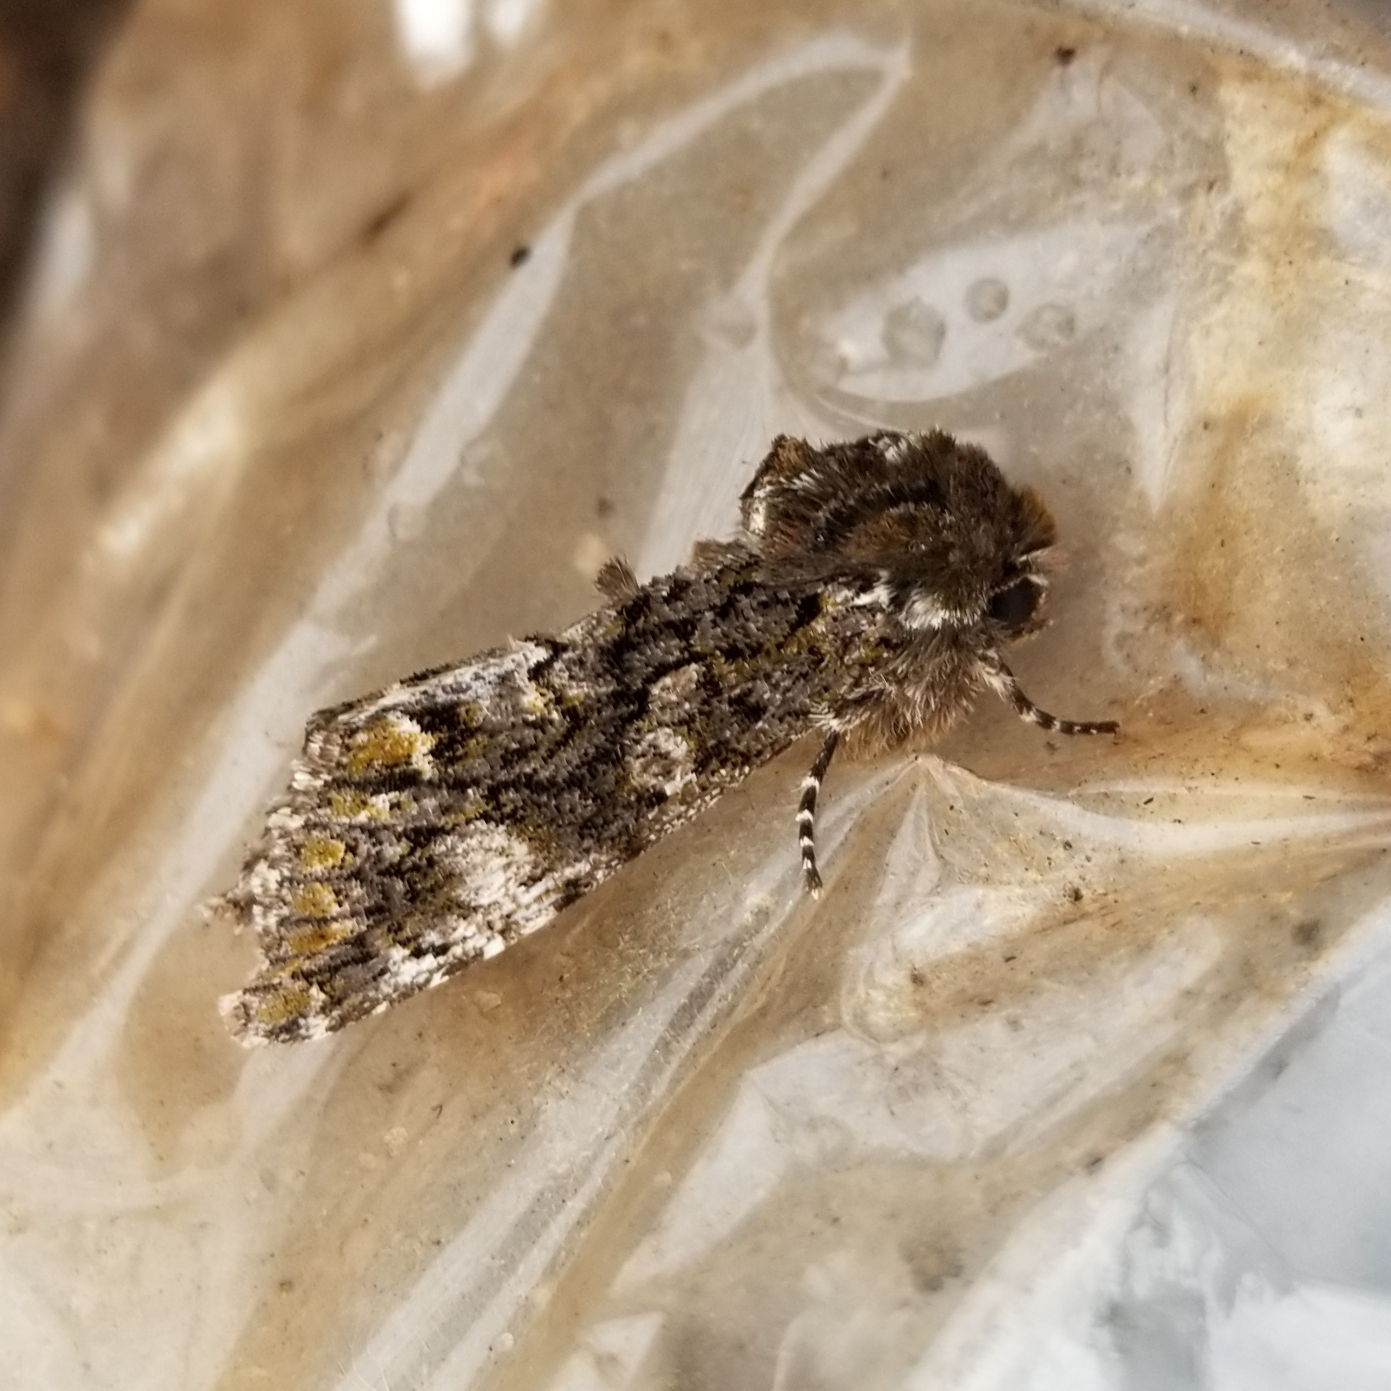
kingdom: Animalia
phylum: Arthropoda
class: Insecta
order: Lepidoptera
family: Noctuidae
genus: Psaphida
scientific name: Psaphida grotei
